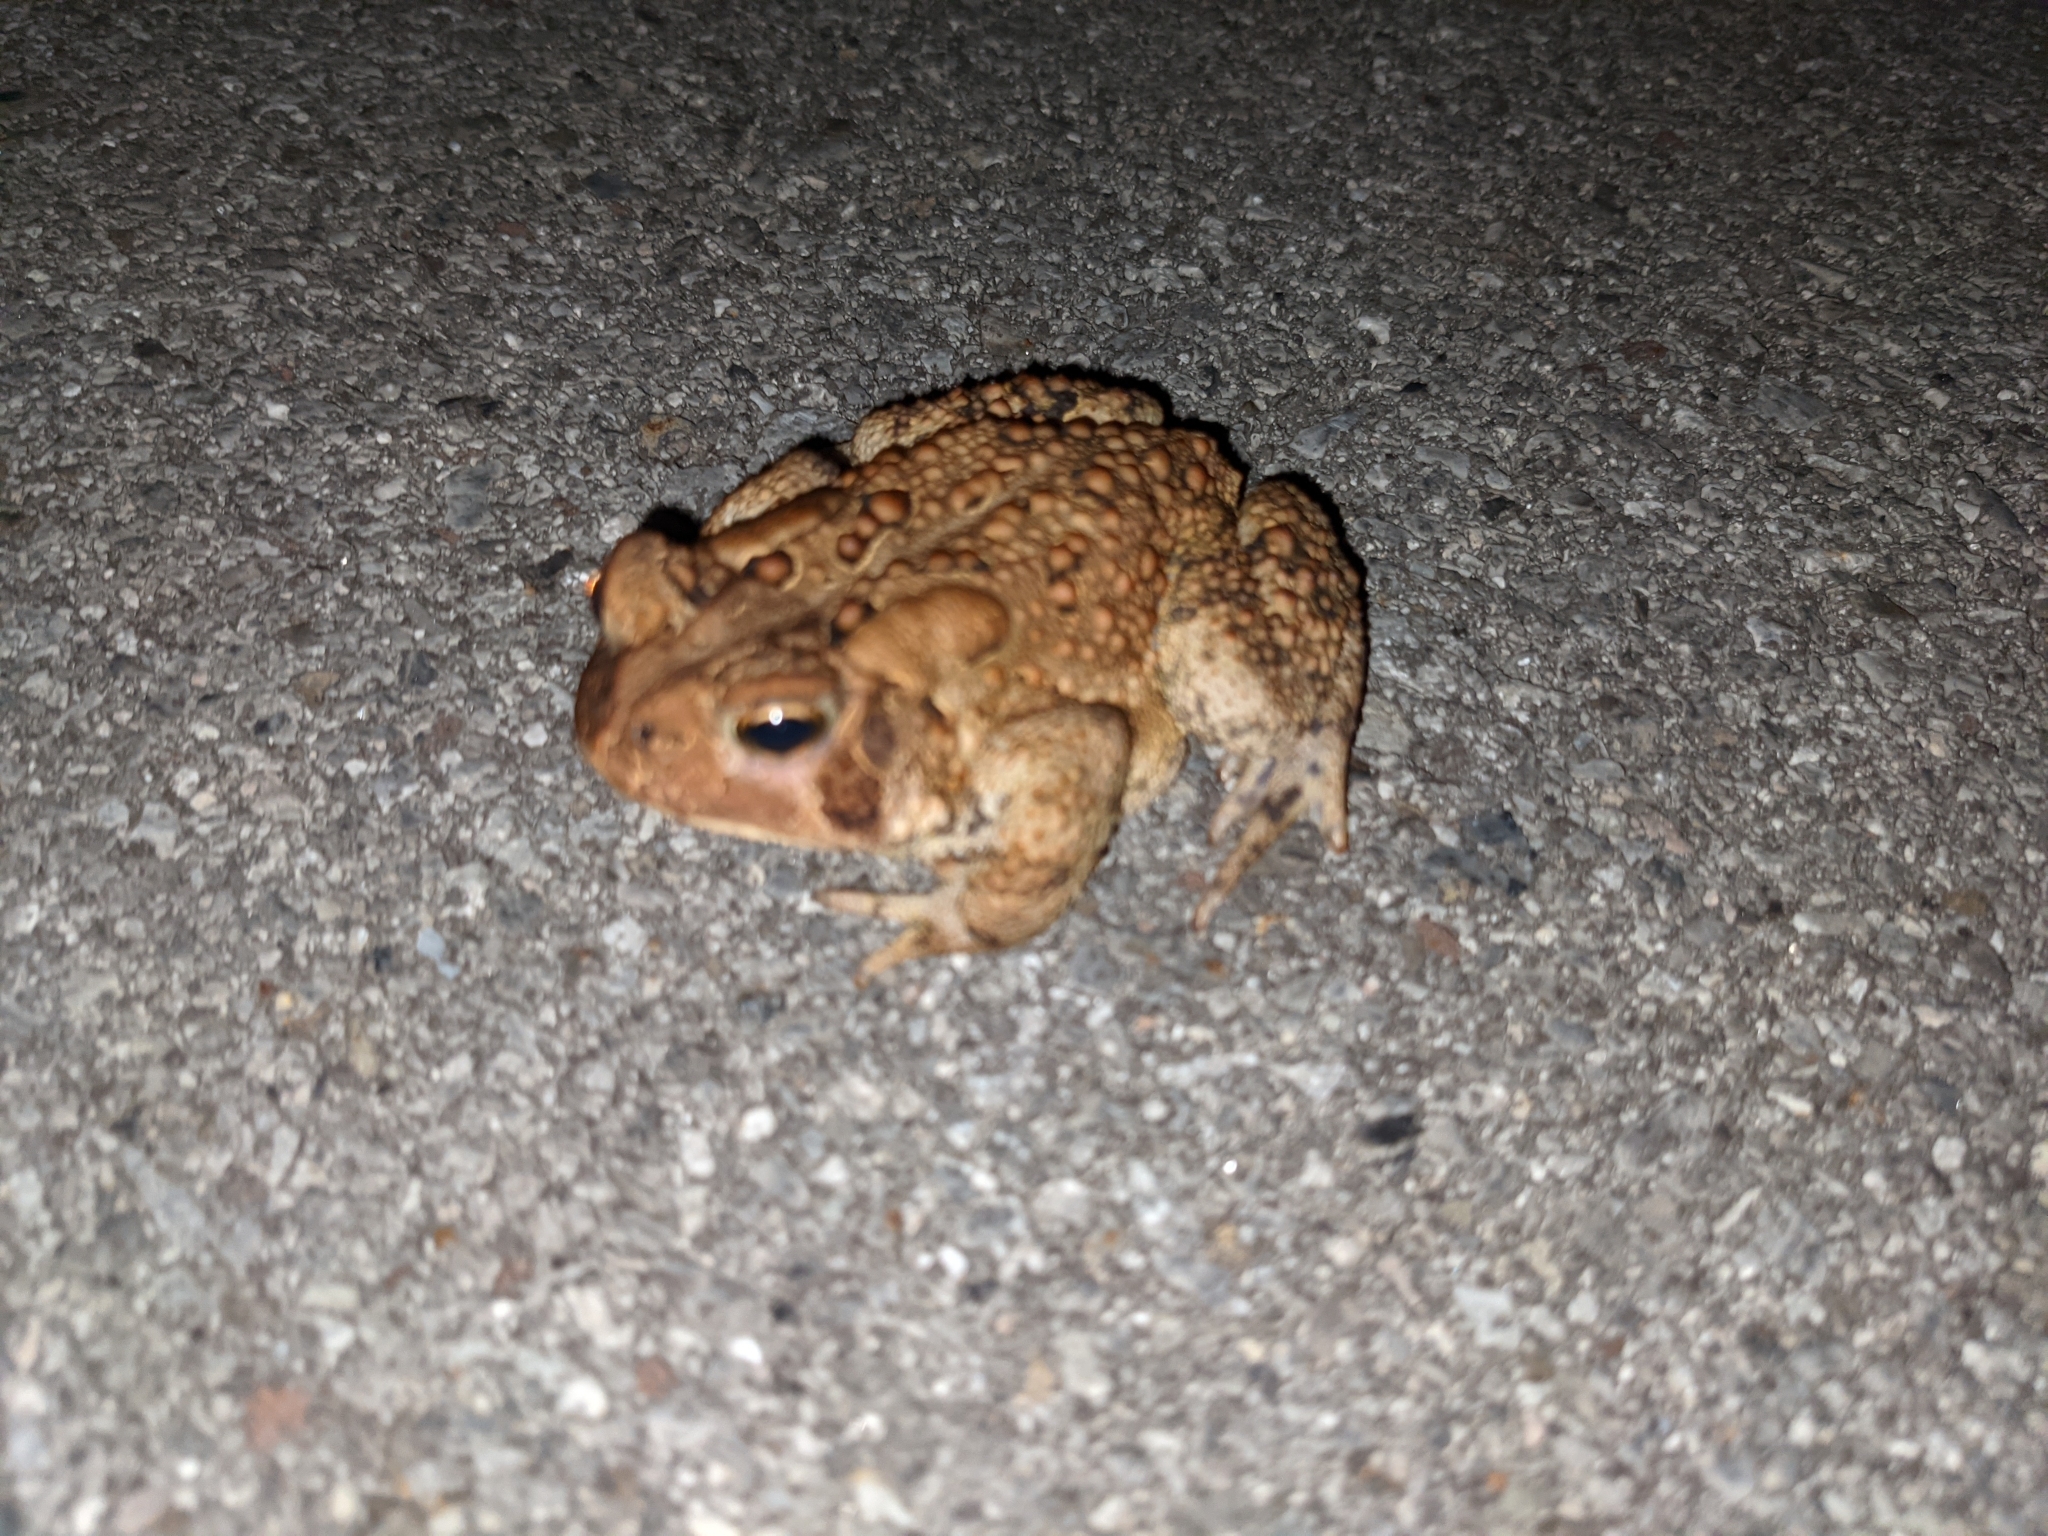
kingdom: Animalia
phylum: Chordata
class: Amphibia
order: Anura
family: Bufonidae
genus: Anaxyrus
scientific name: Anaxyrus americanus
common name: American toad
